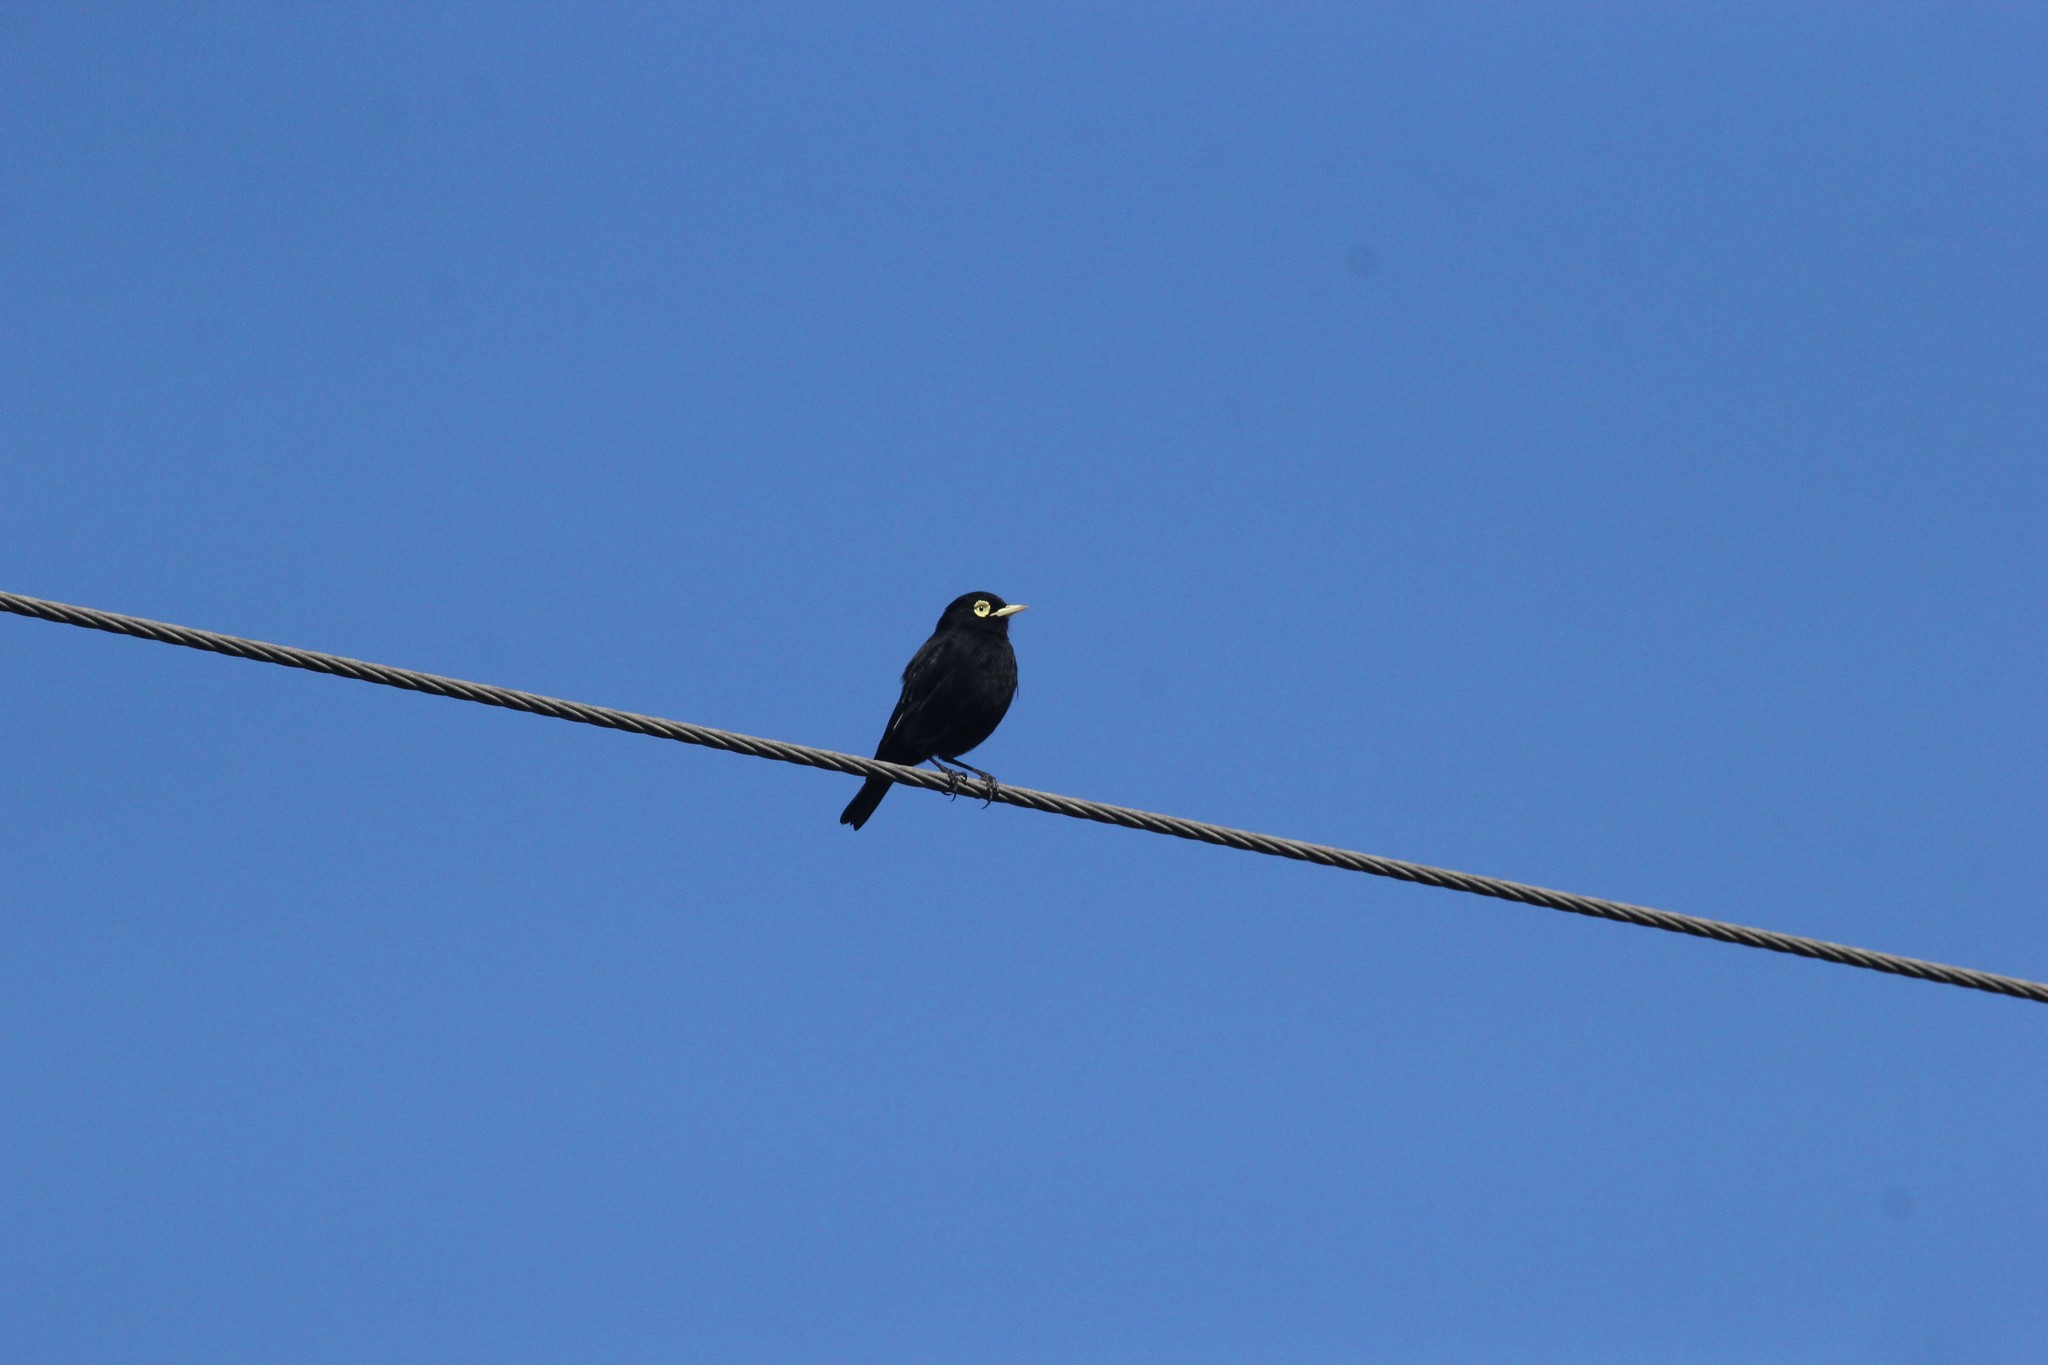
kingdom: Animalia
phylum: Chordata
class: Aves
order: Passeriformes
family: Tyrannidae
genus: Hymenops
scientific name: Hymenops perspicillatus
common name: Spectacled tyrant
